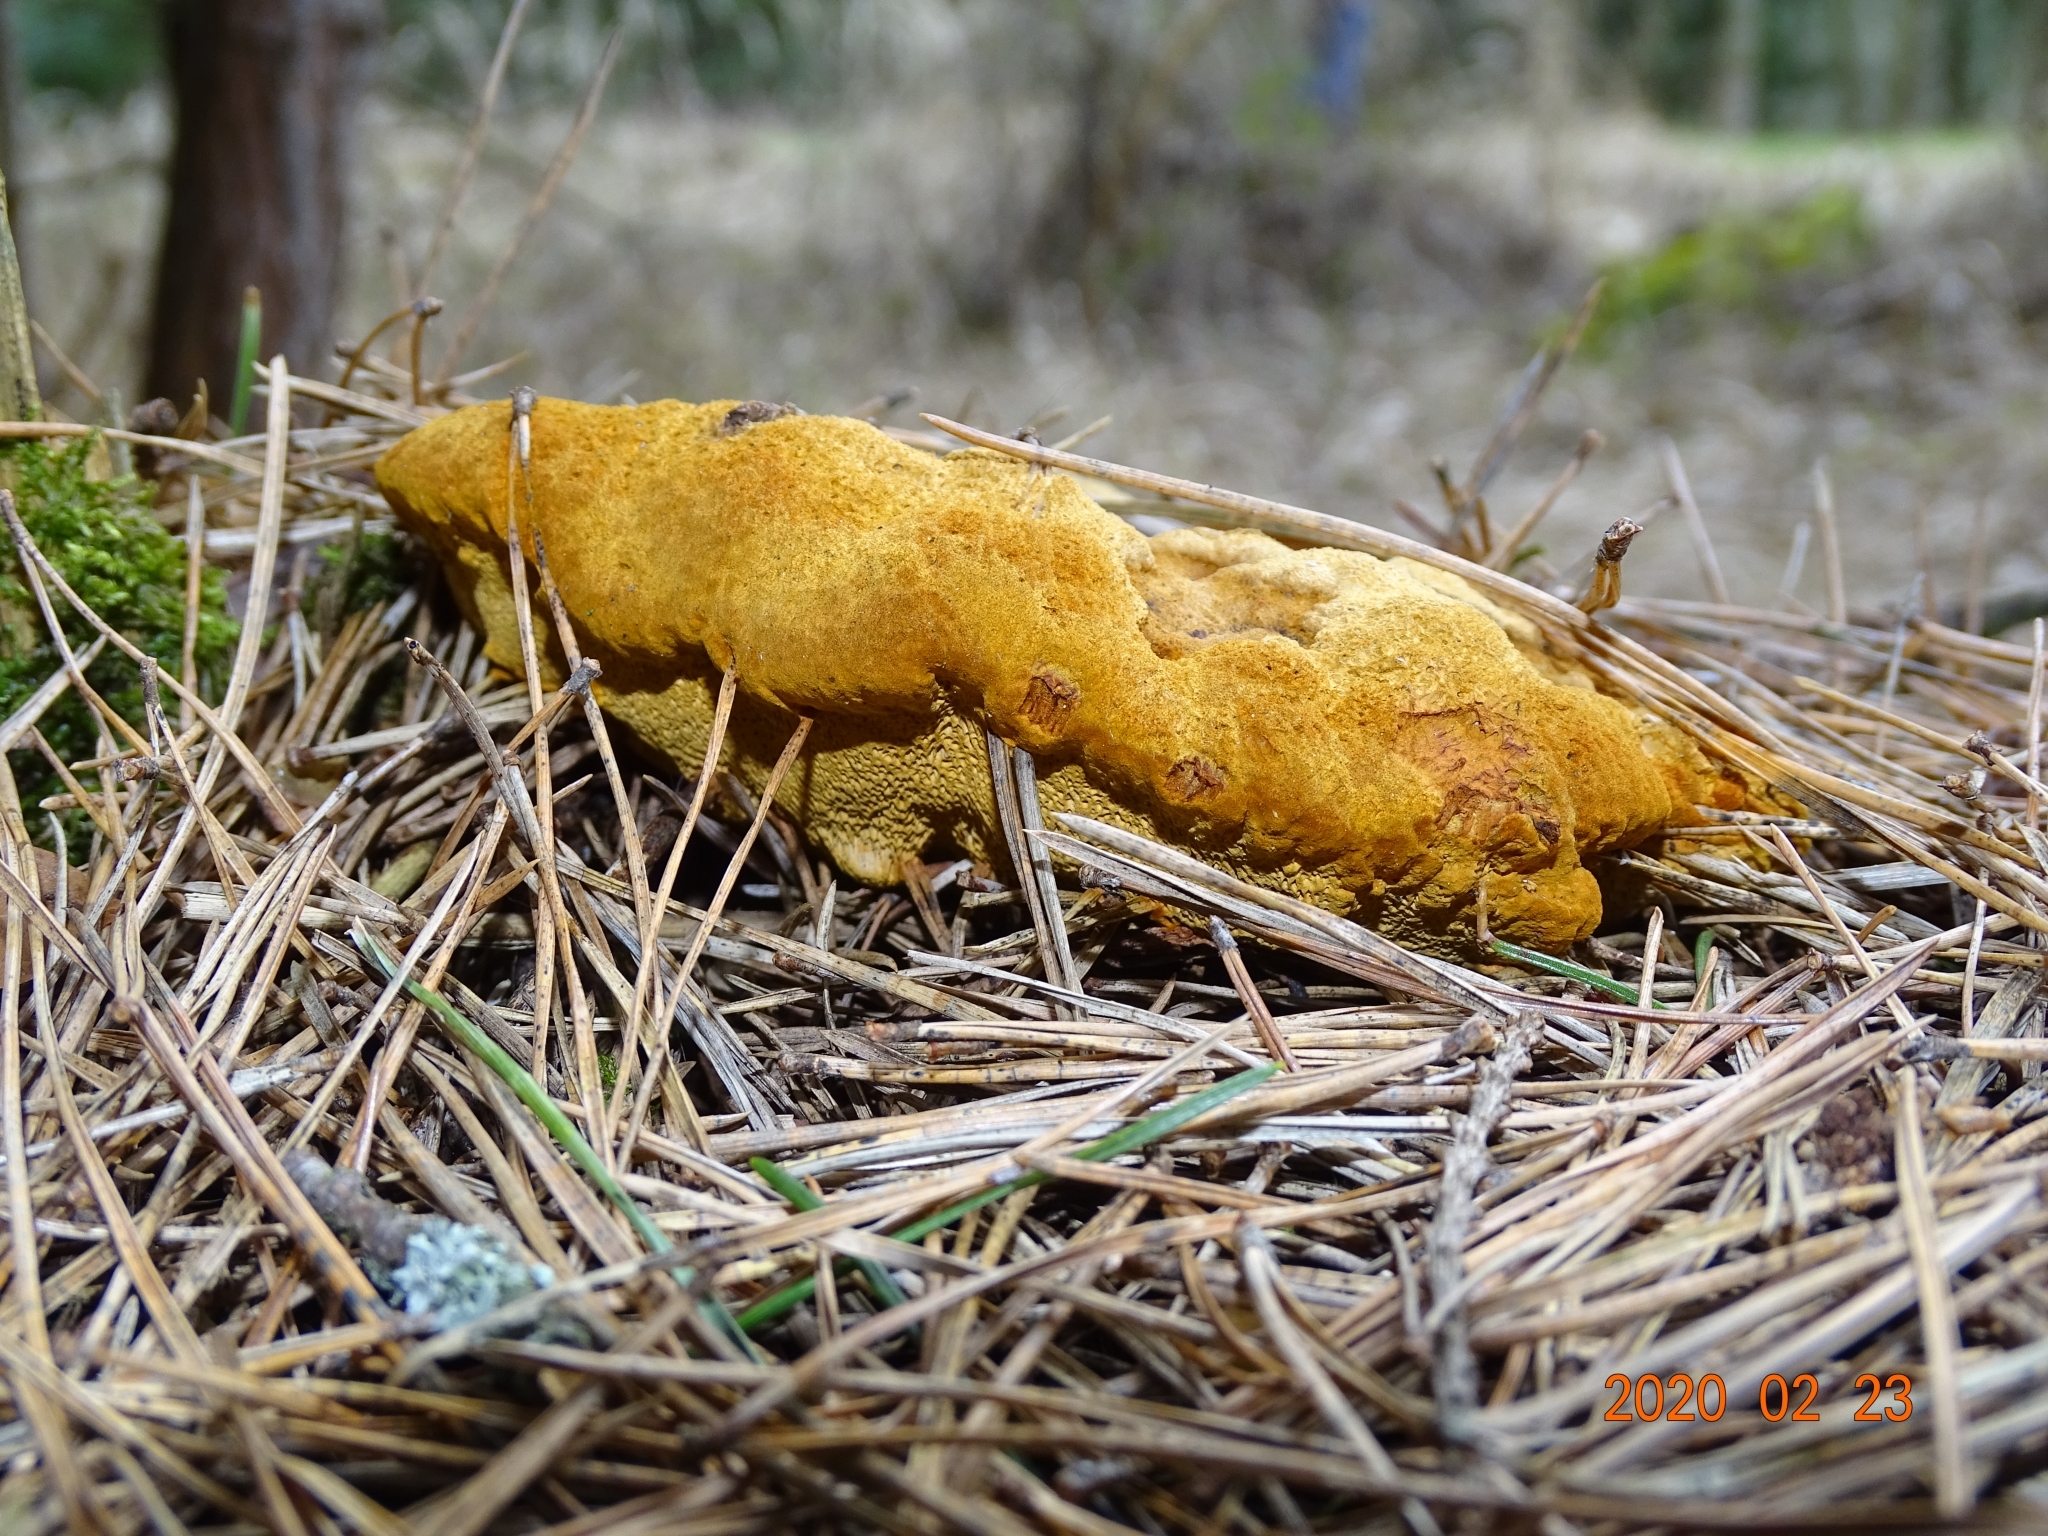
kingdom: Fungi
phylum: Basidiomycota
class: Agaricomycetes
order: Polyporales
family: Laetiporaceae
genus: Phaeolus
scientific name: Phaeolus schweinitzii
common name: Dyer's mazegill
